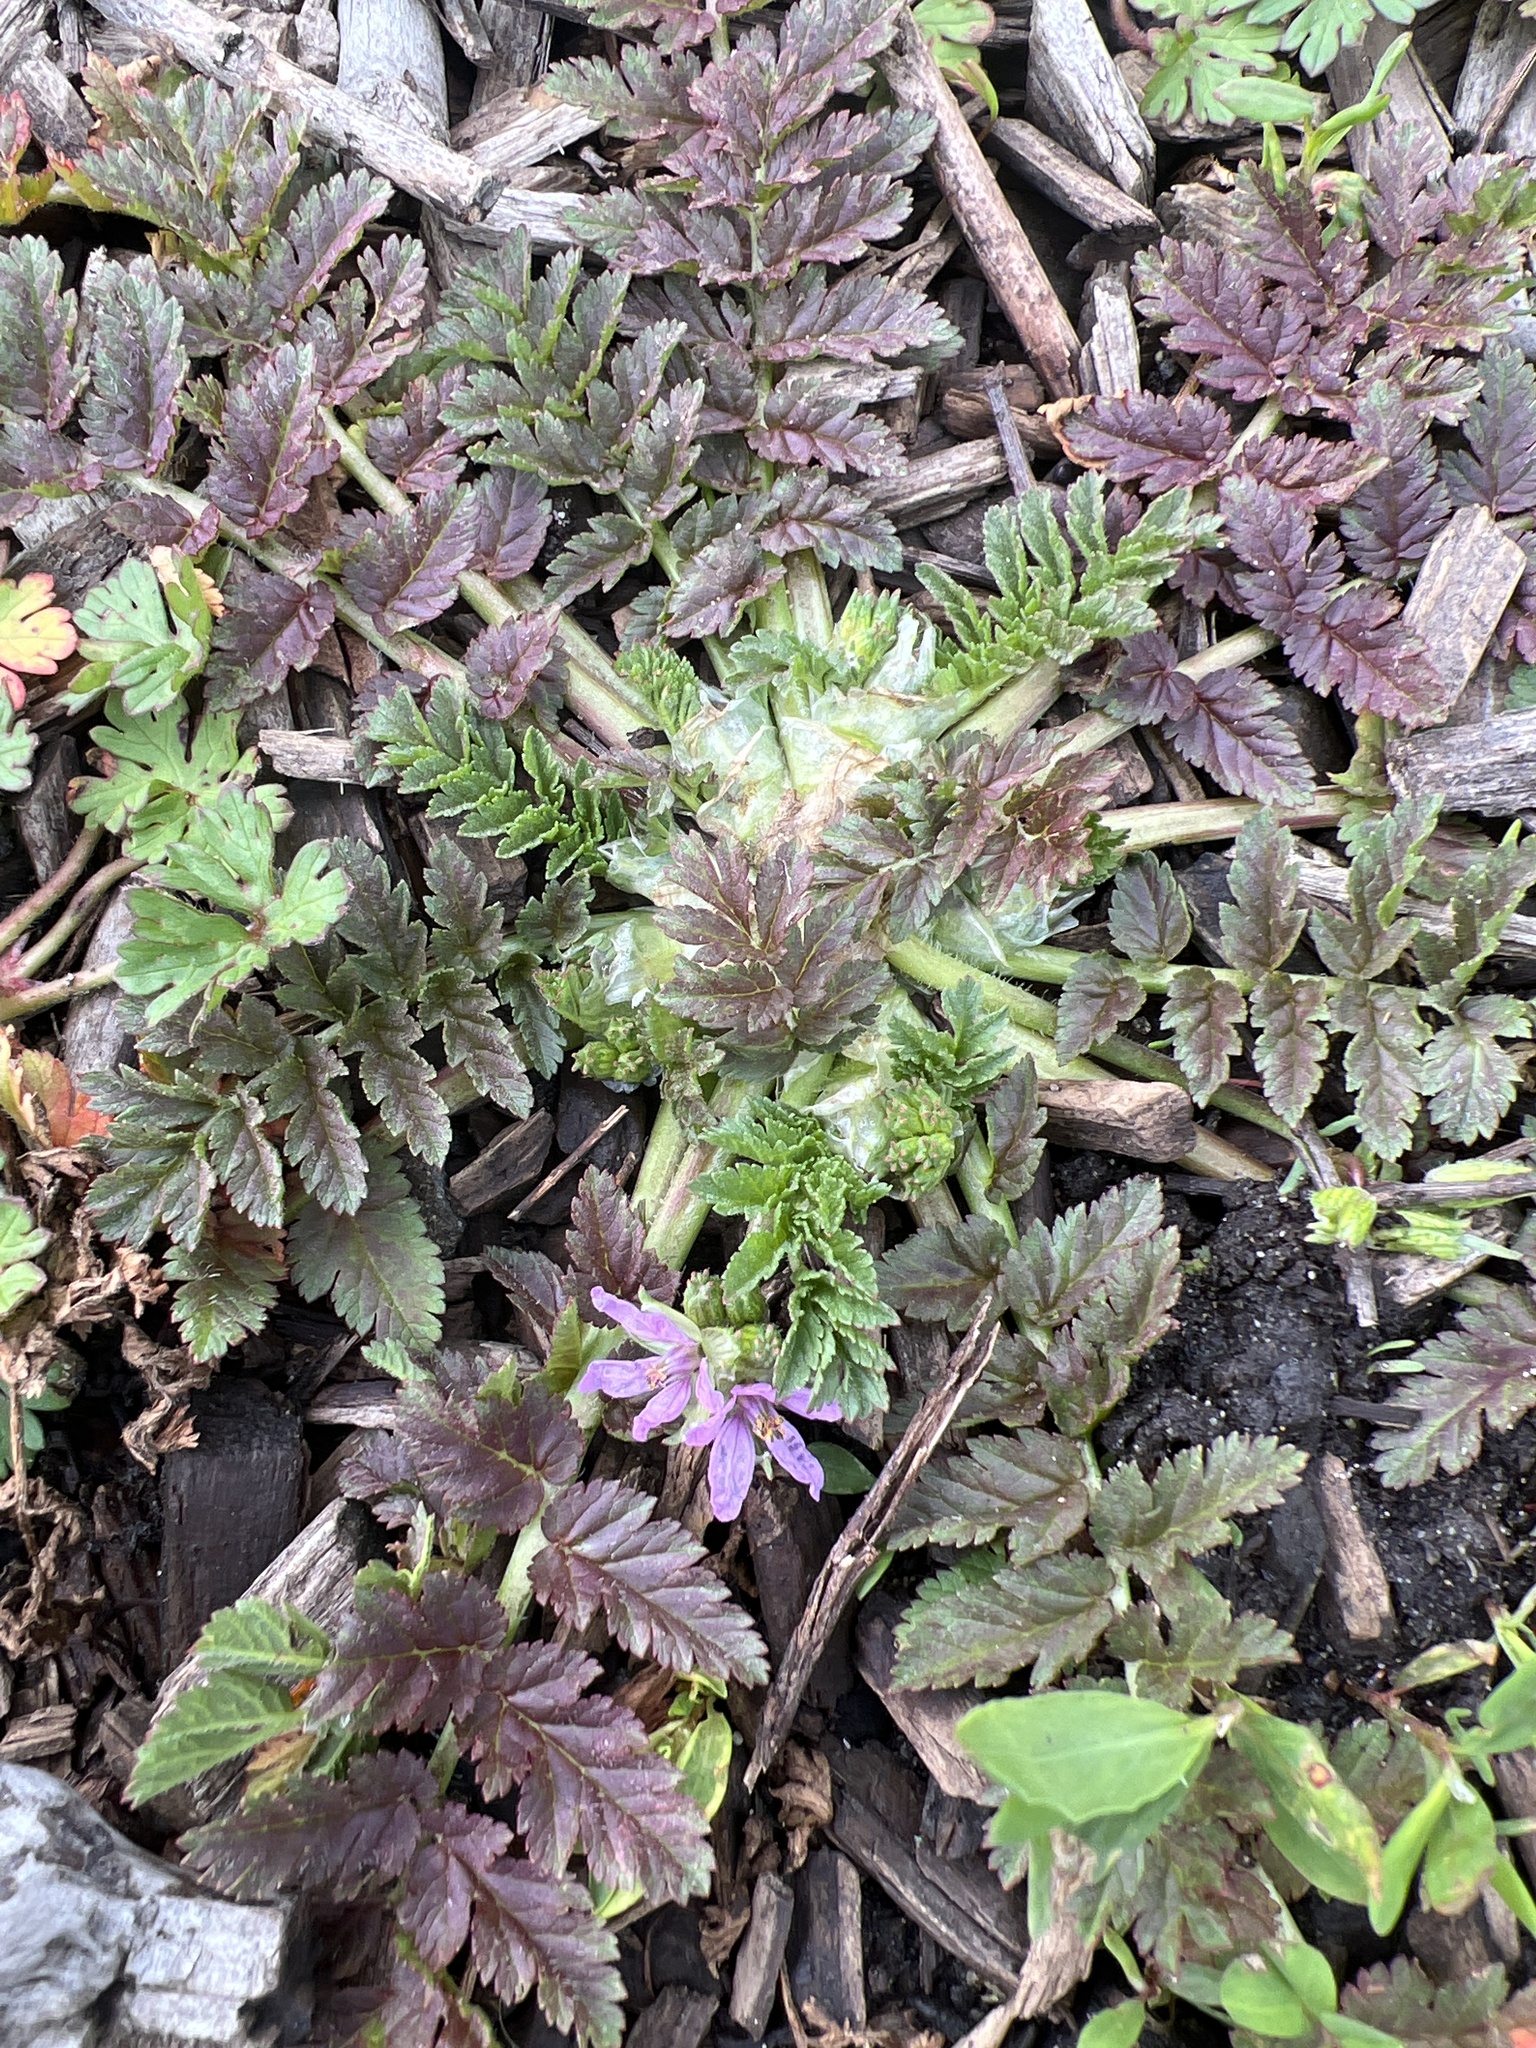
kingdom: Plantae
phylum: Tracheophyta
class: Magnoliopsida
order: Geraniales
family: Geraniaceae
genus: Erodium
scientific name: Erodium moschatum
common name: Musk stork's-bill
